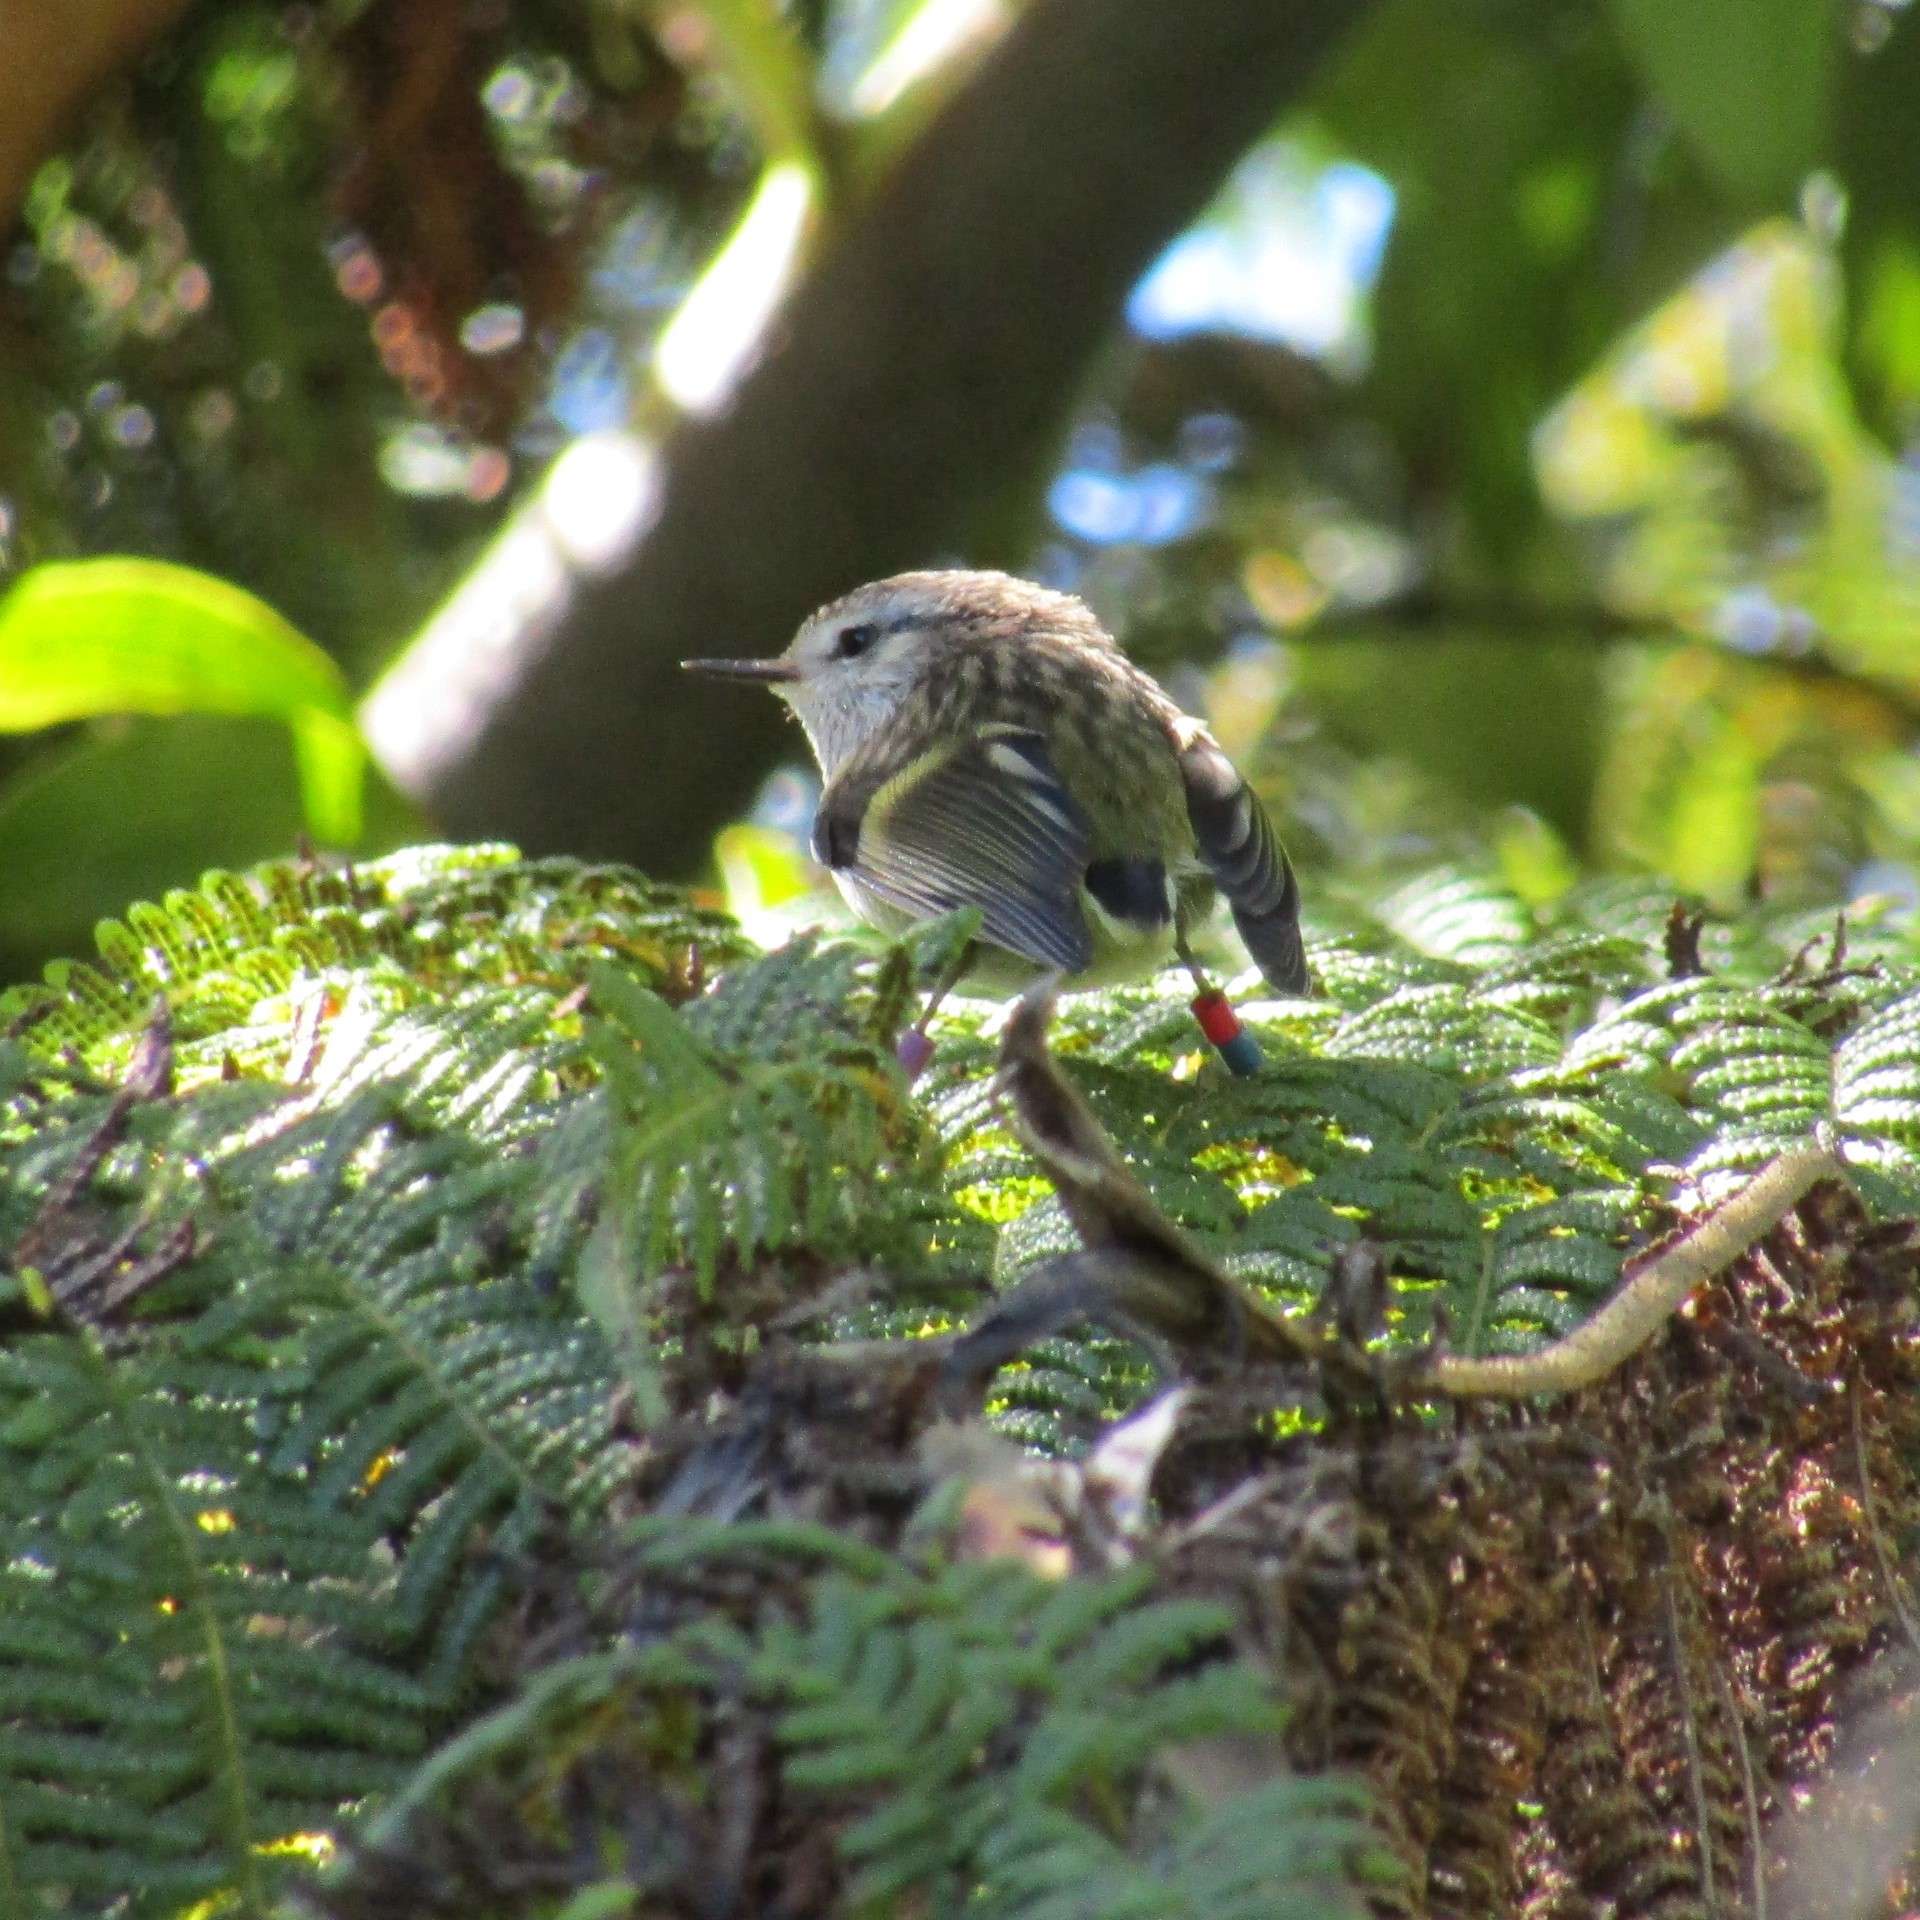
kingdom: Animalia
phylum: Chordata
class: Aves
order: Passeriformes
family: Acanthisittidae
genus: Acanthisitta
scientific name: Acanthisitta chloris
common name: Rifleman
